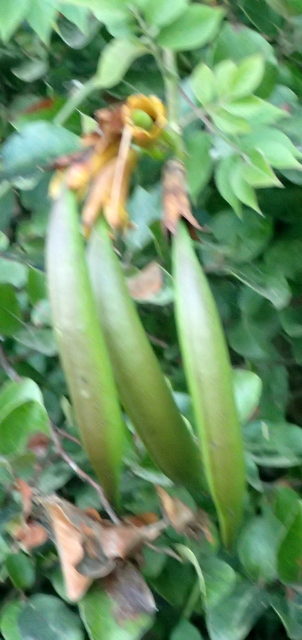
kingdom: Plantae
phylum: Tracheophyta
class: Magnoliopsida
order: Lamiales
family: Bignoniaceae
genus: Campsis
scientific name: Campsis radicans
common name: Trumpet-creeper
